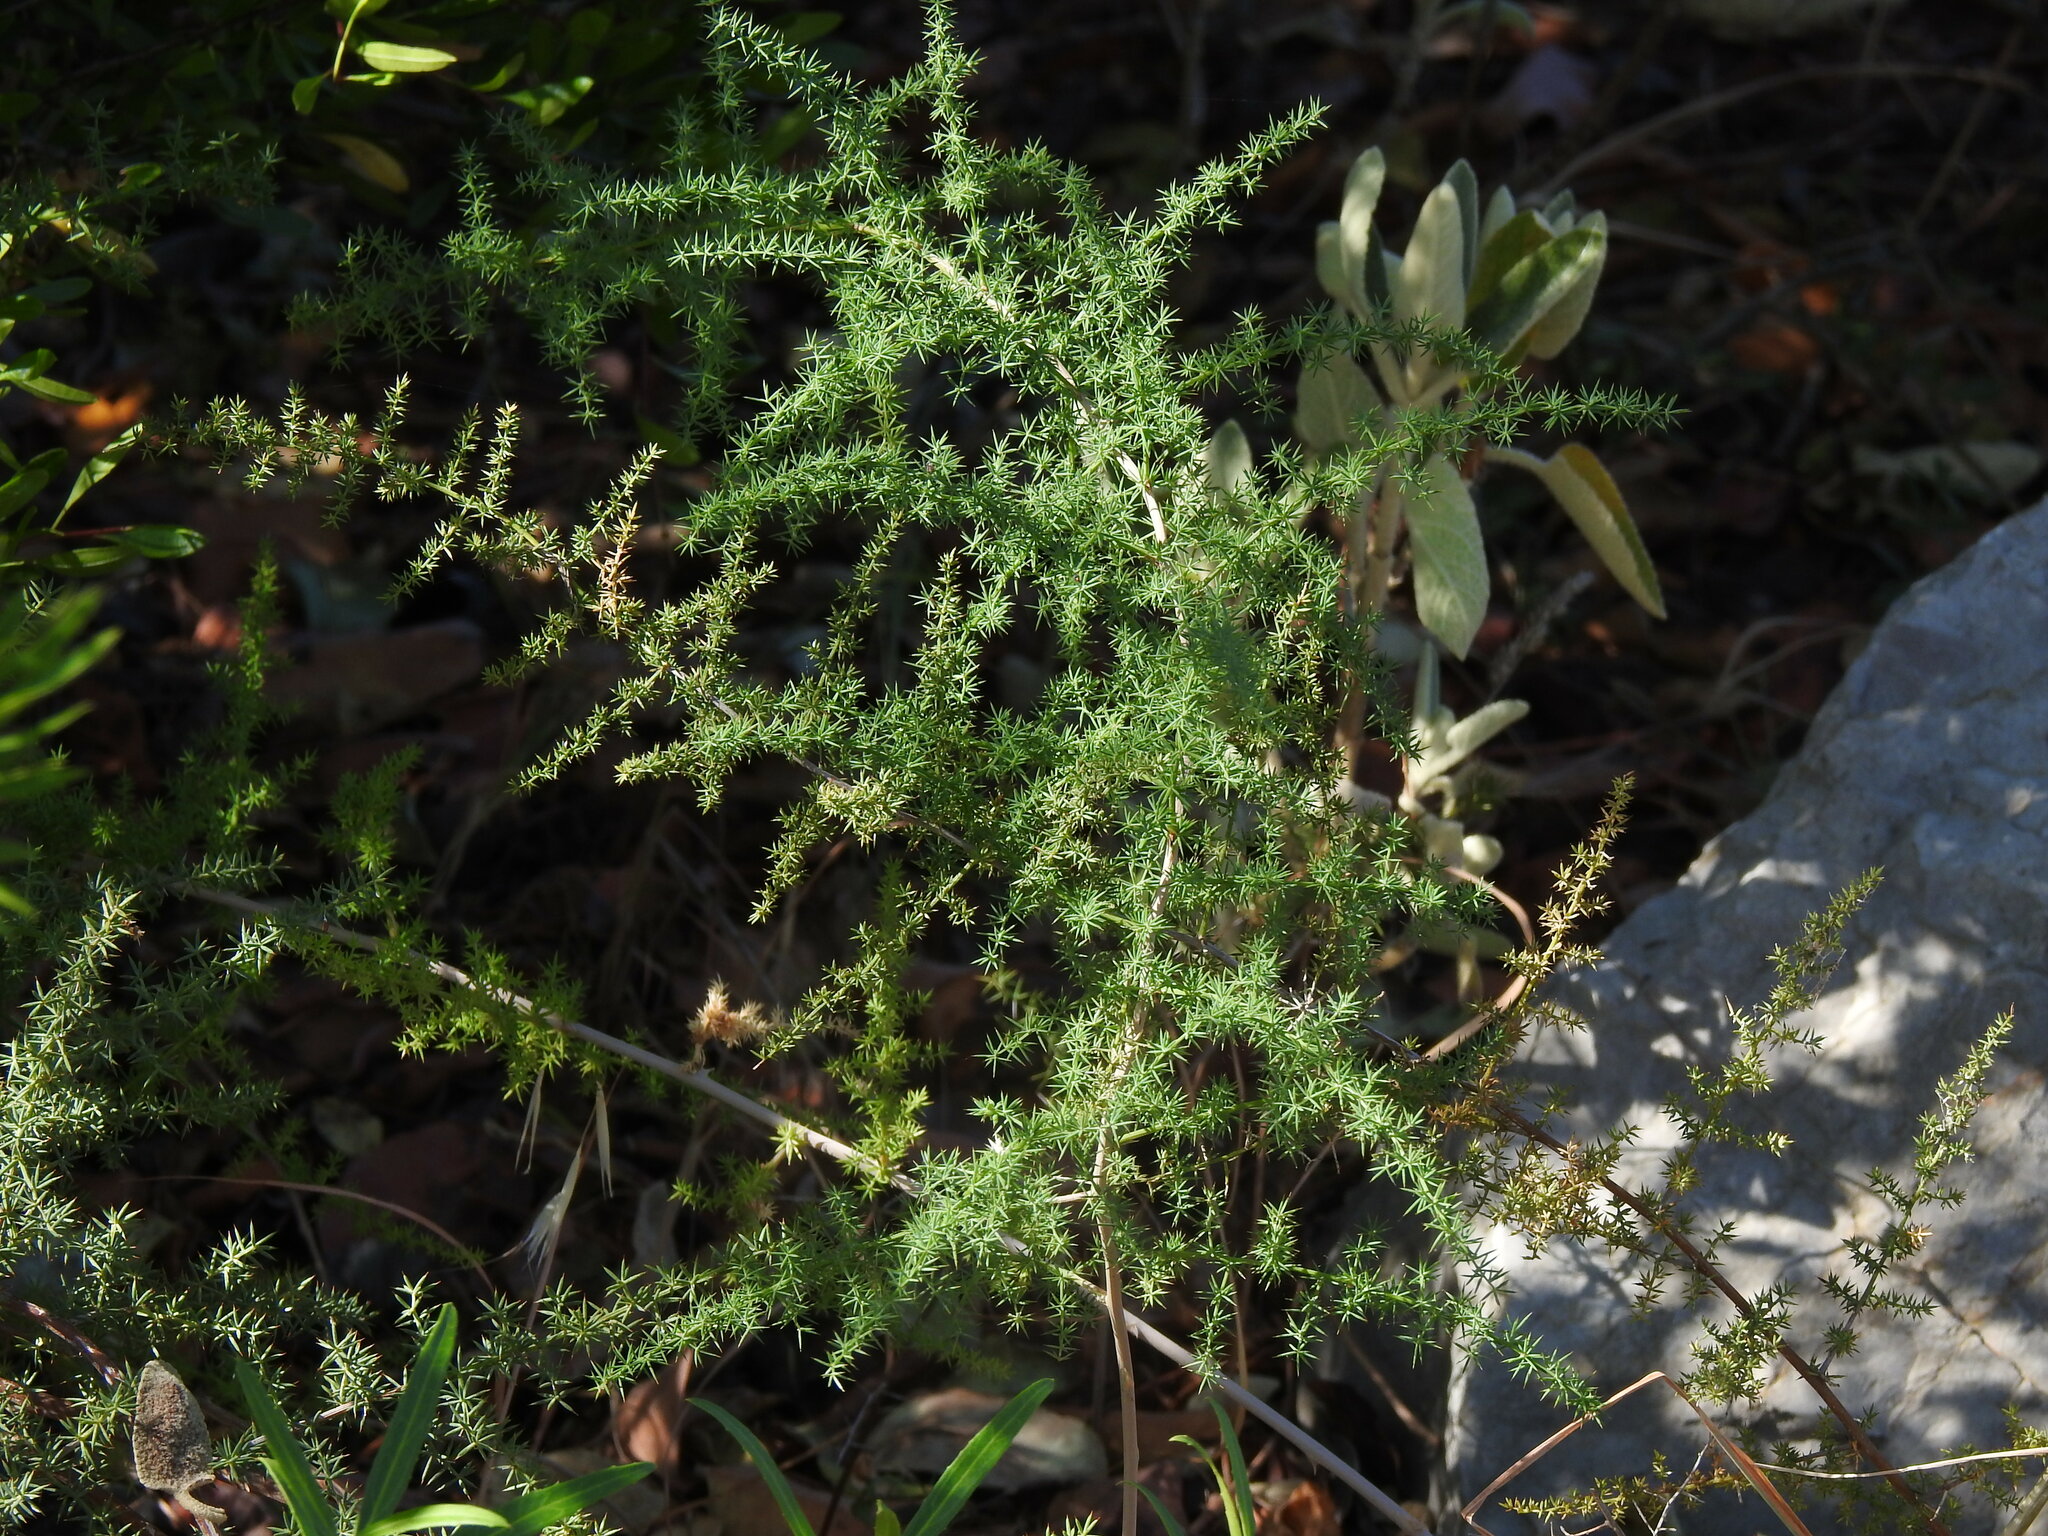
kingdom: Plantae
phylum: Tracheophyta
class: Liliopsida
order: Asparagales
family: Asparagaceae
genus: Asparagus
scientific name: Asparagus acutifolius
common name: Wild asparagus
